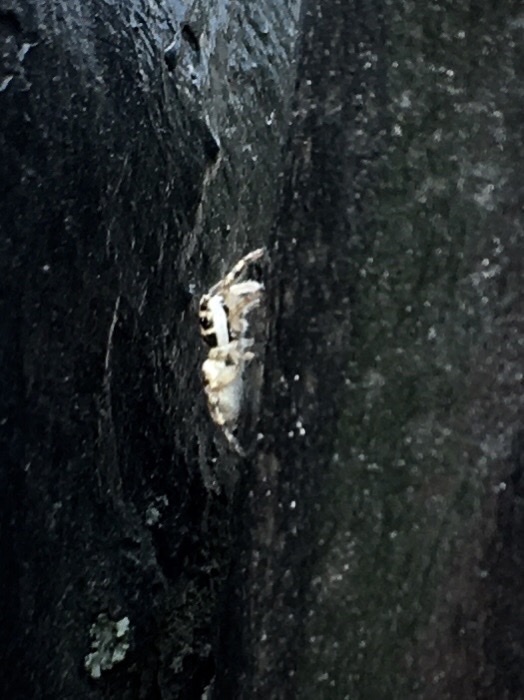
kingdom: Animalia
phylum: Arthropoda
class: Arachnida
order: Araneae
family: Salticidae
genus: Salticus
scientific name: Salticus scenicus
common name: Zebra jumper
